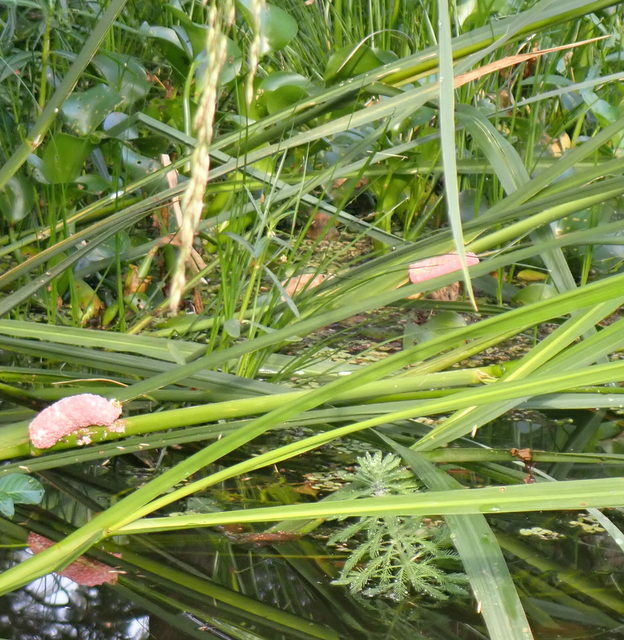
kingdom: Animalia
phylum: Mollusca
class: Gastropoda
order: Architaenioglossa
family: Ampullariidae
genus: Pomacea
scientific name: Pomacea maculata
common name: Giant applesnail
